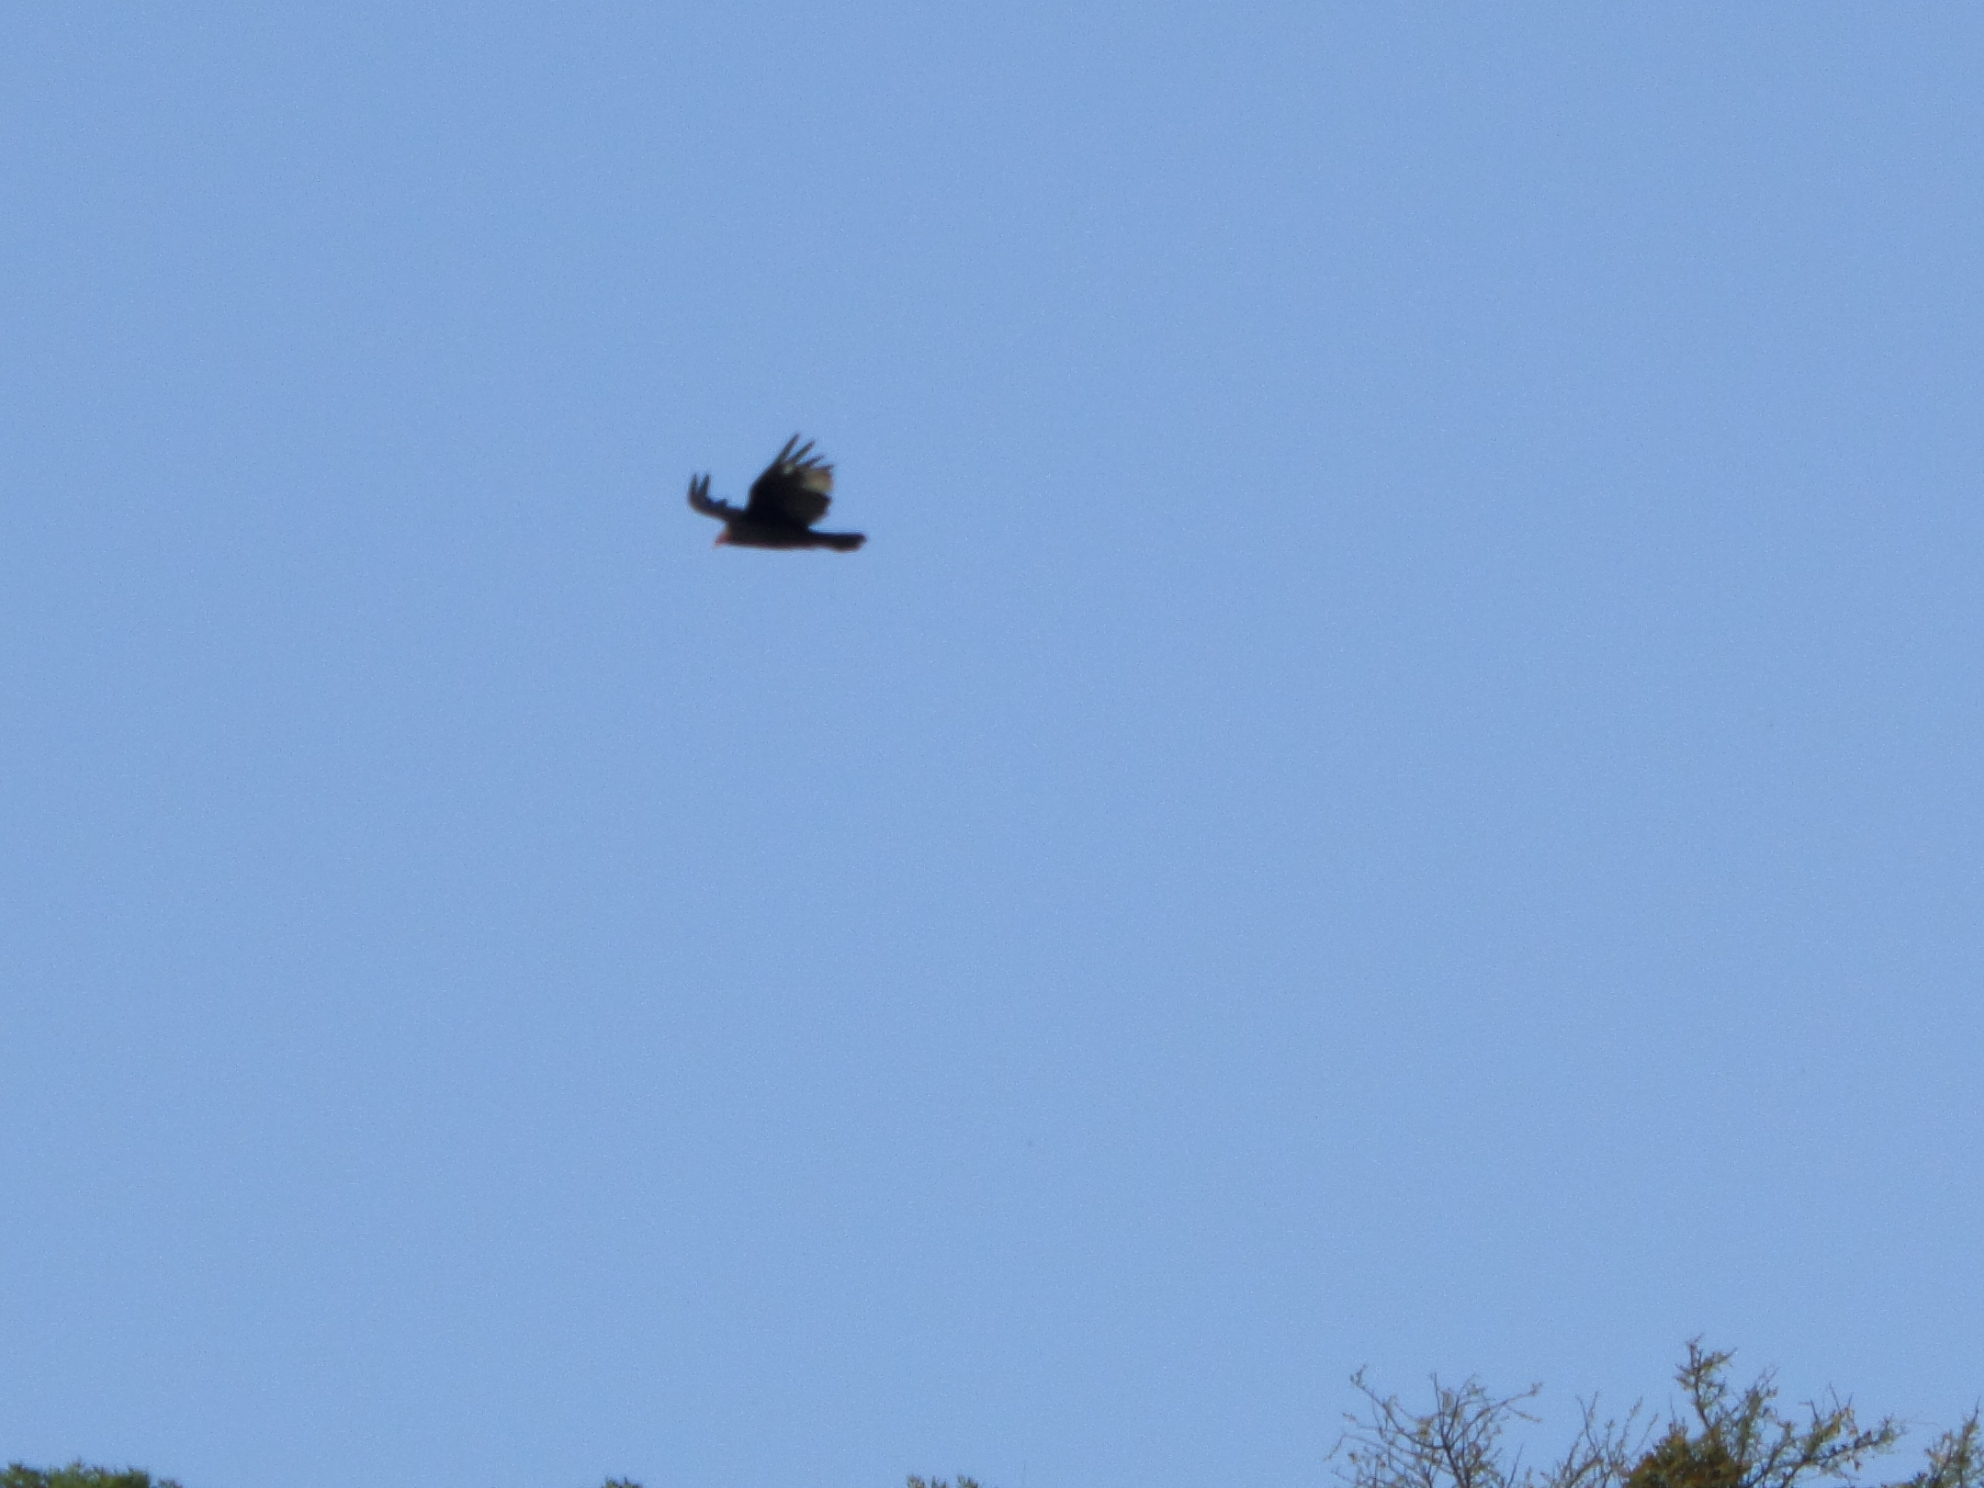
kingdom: Animalia
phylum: Chordata
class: Aves
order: Accipitriformes
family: Cathartidae
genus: Cathartes
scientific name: Cathartes aura
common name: Turkey vulture
